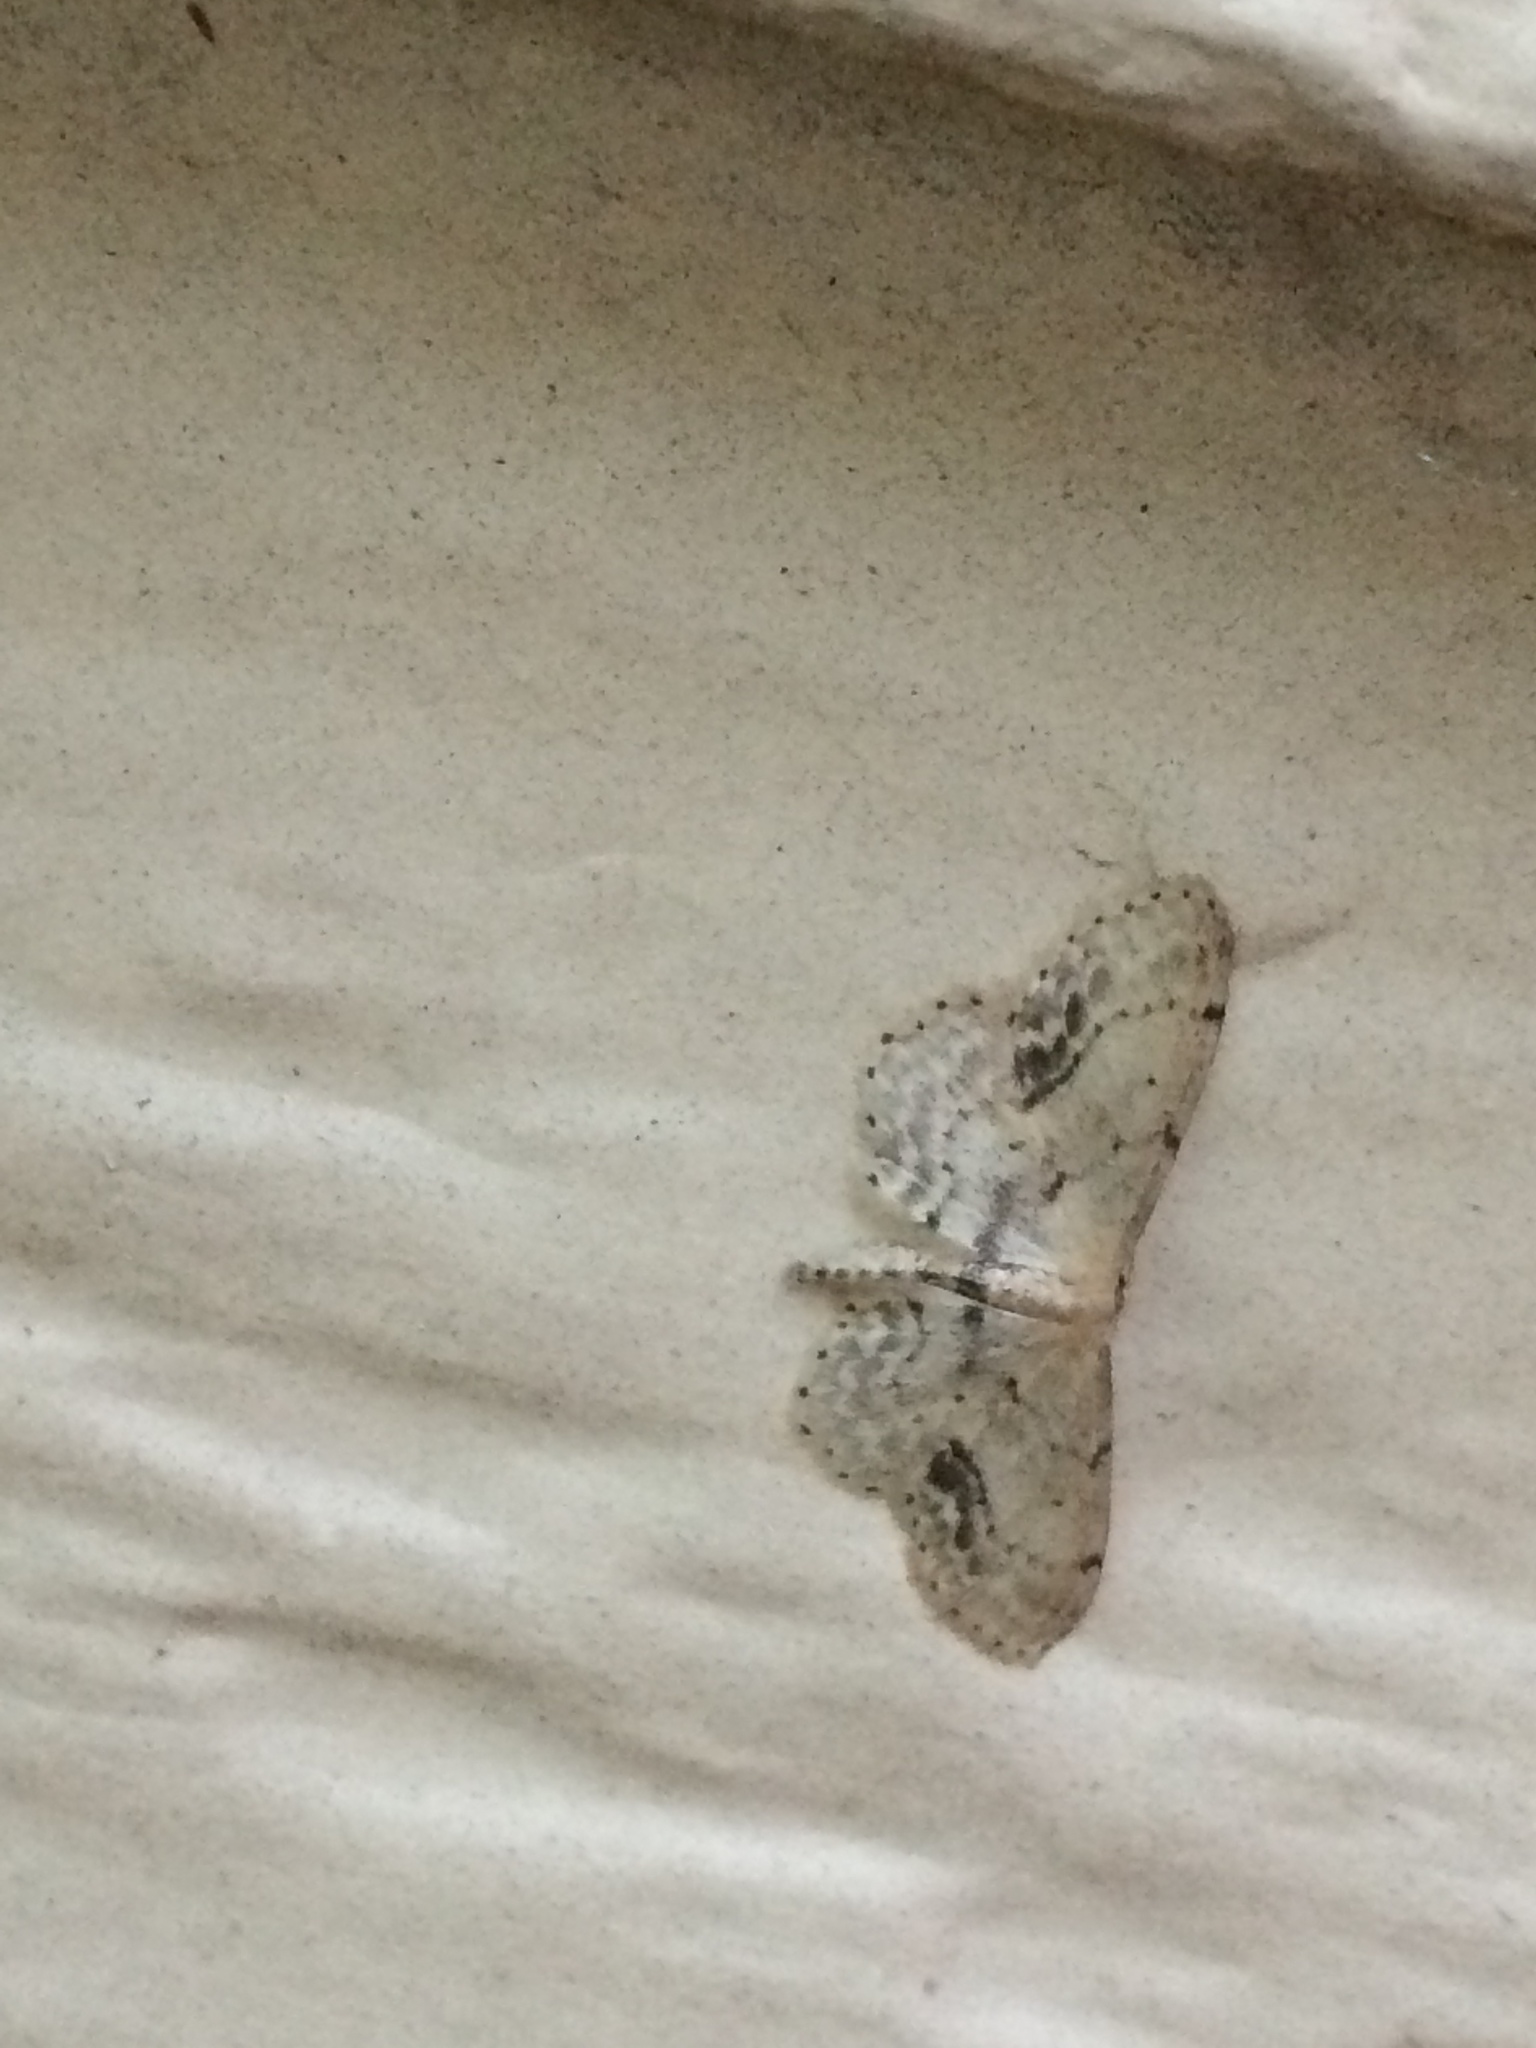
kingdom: Animalia
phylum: Arthropoda
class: Insecta
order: Lepidoptera
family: Geometridae
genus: Idaea
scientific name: Idaea dimidiata
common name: Single-dotted wave
